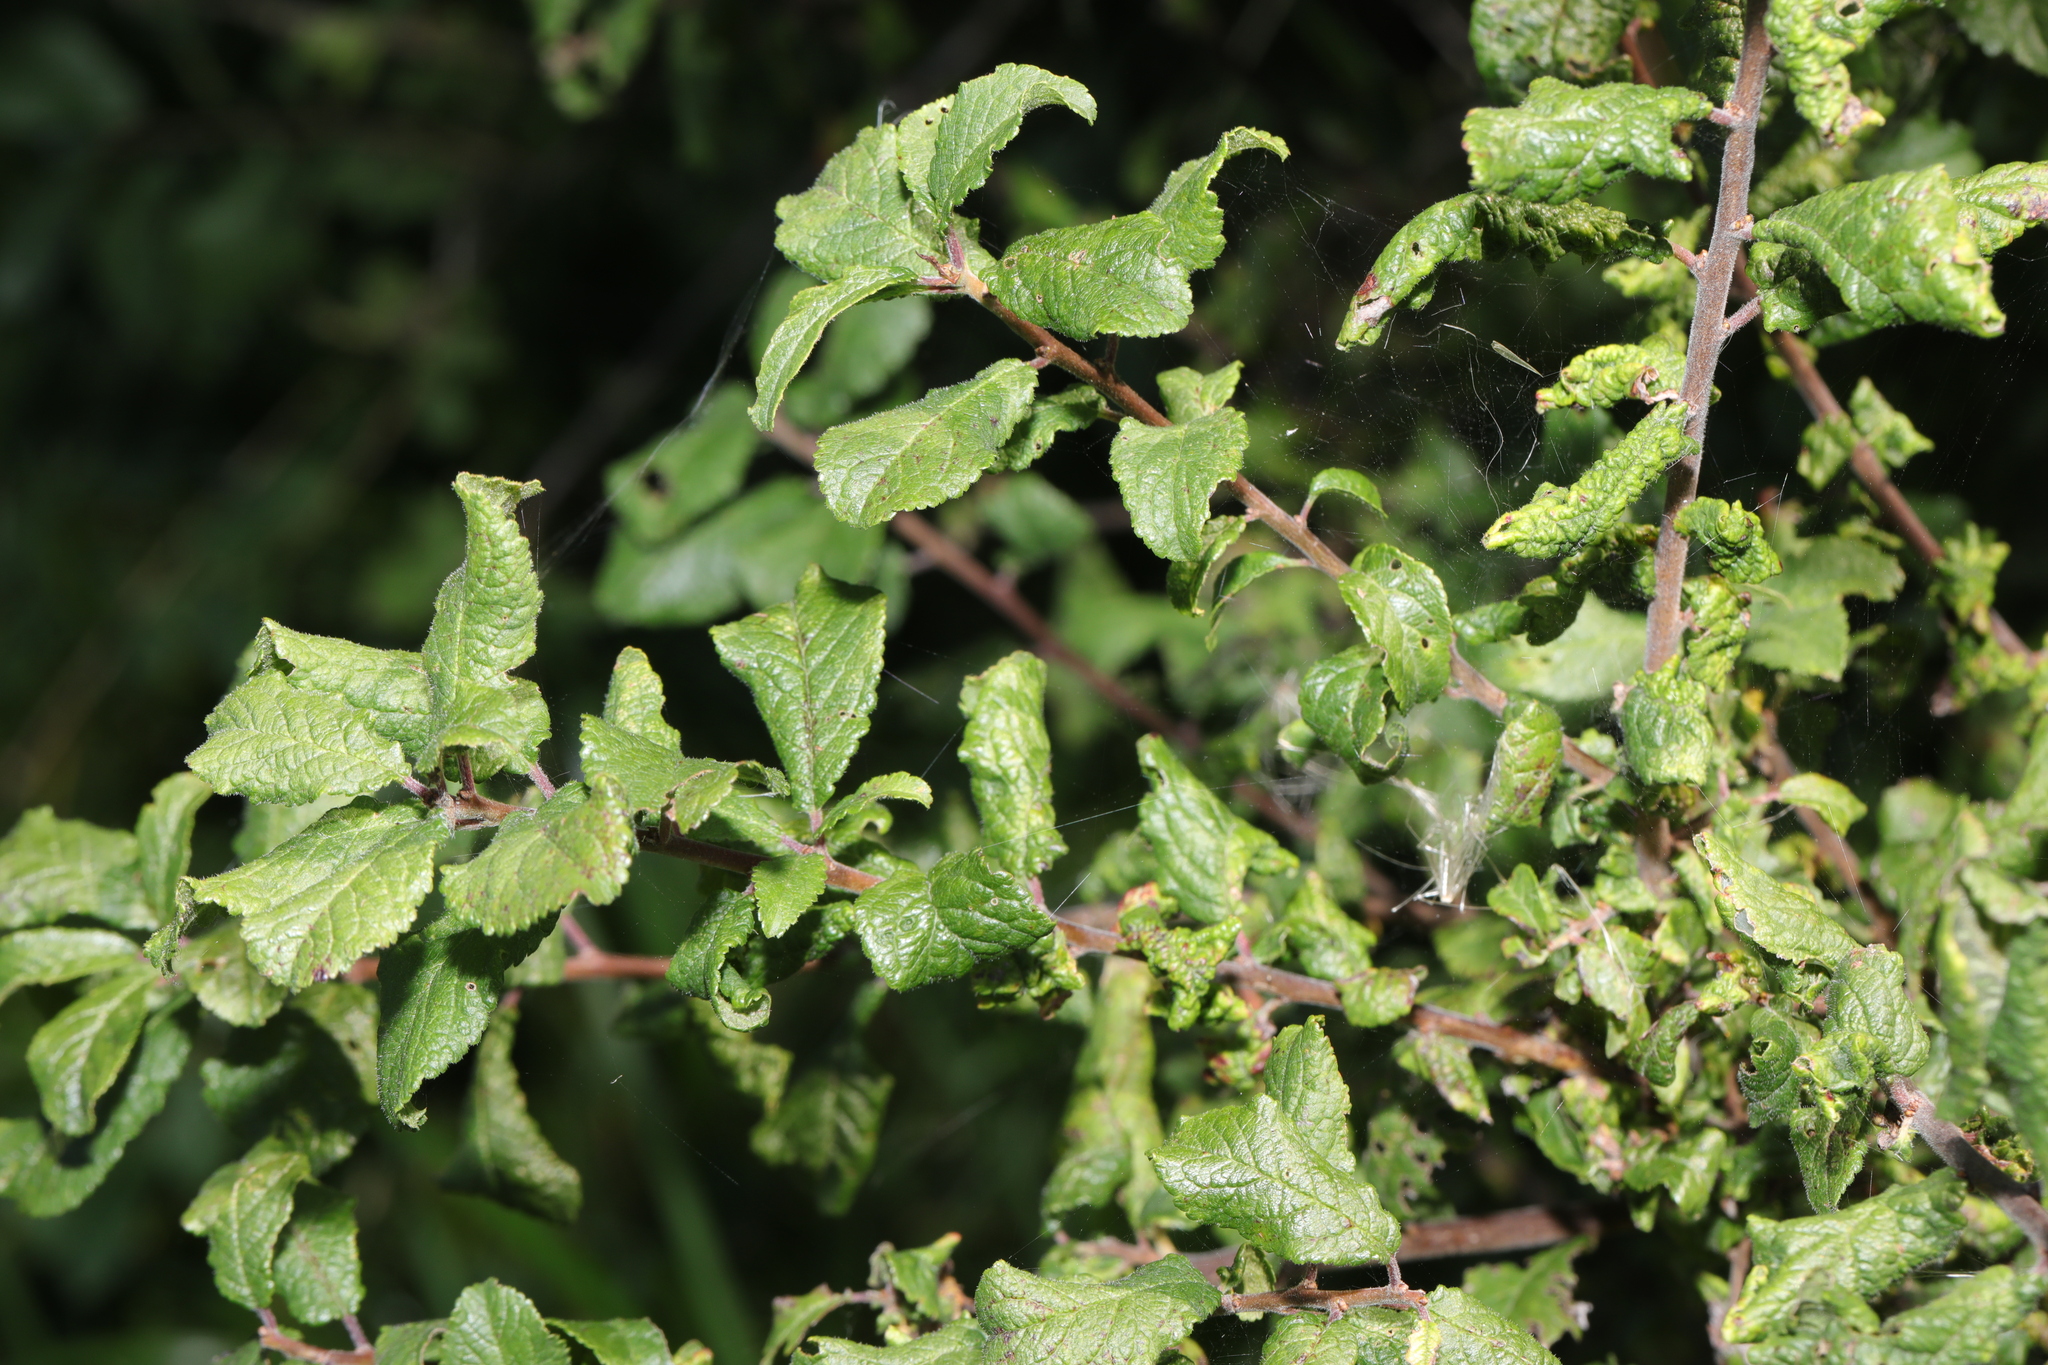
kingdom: Plantae
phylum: Tracheophyta
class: Magnoliopsida
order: Rosales
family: Rosaceae
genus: Prunus
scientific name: Prunus spinosa
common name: Blackthorn
